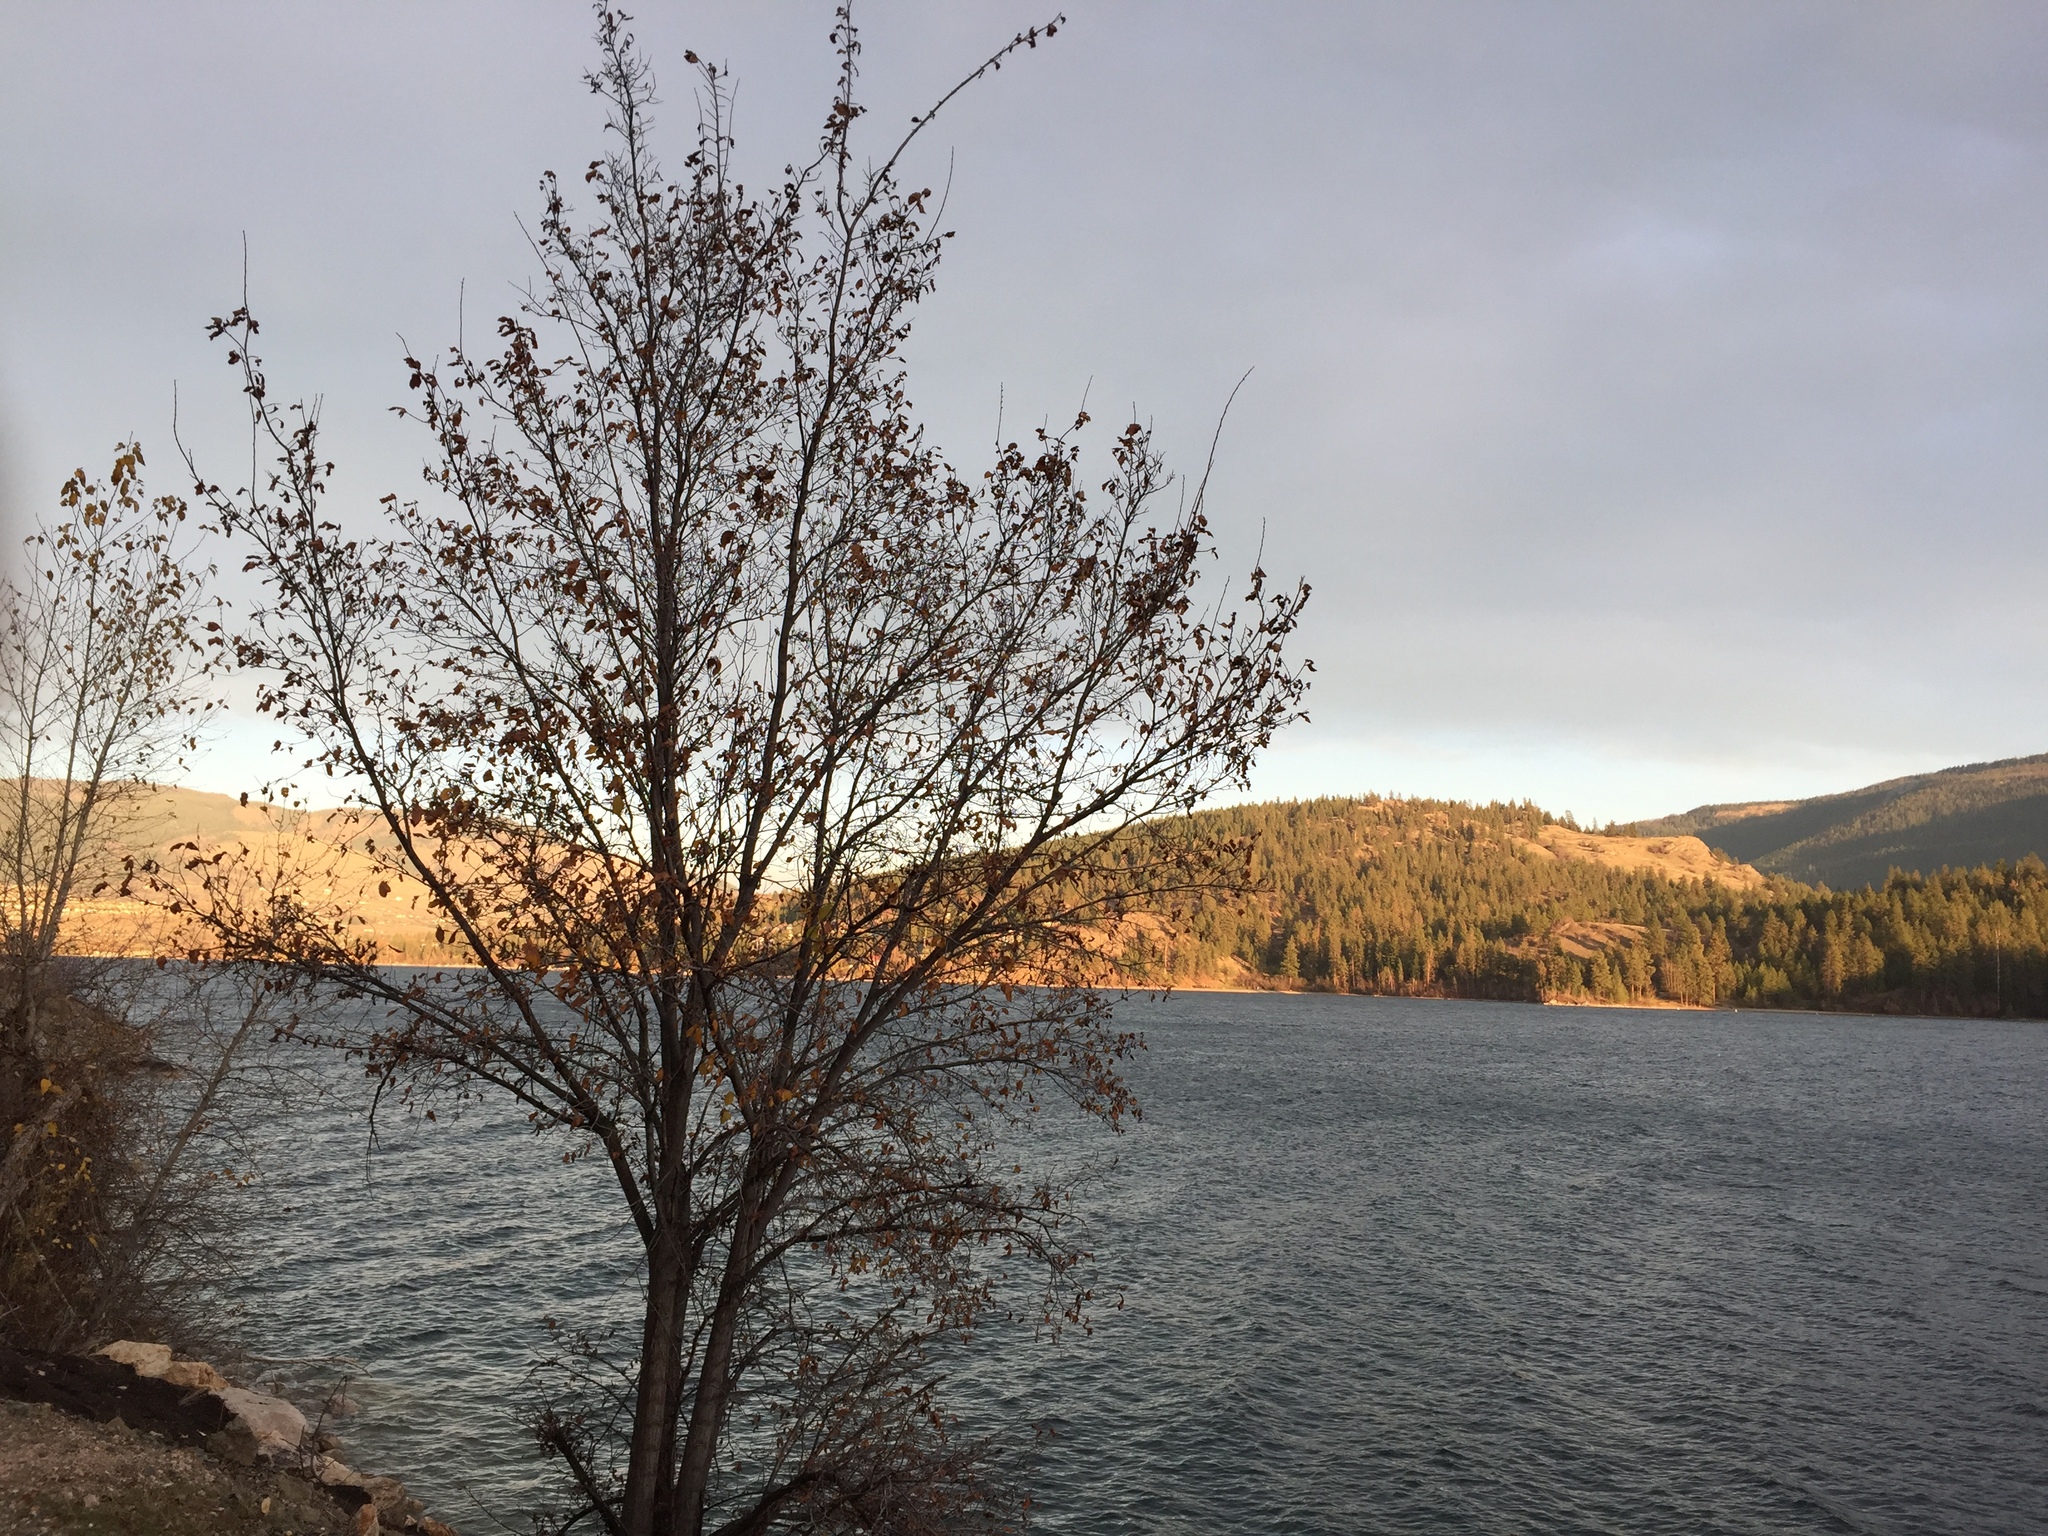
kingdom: Plantae
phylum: Tracheophyta
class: Magnoliopsida
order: Rosales
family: Ulmaceae
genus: Ulmus
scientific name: Ulmus pumila
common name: Siberian elm
